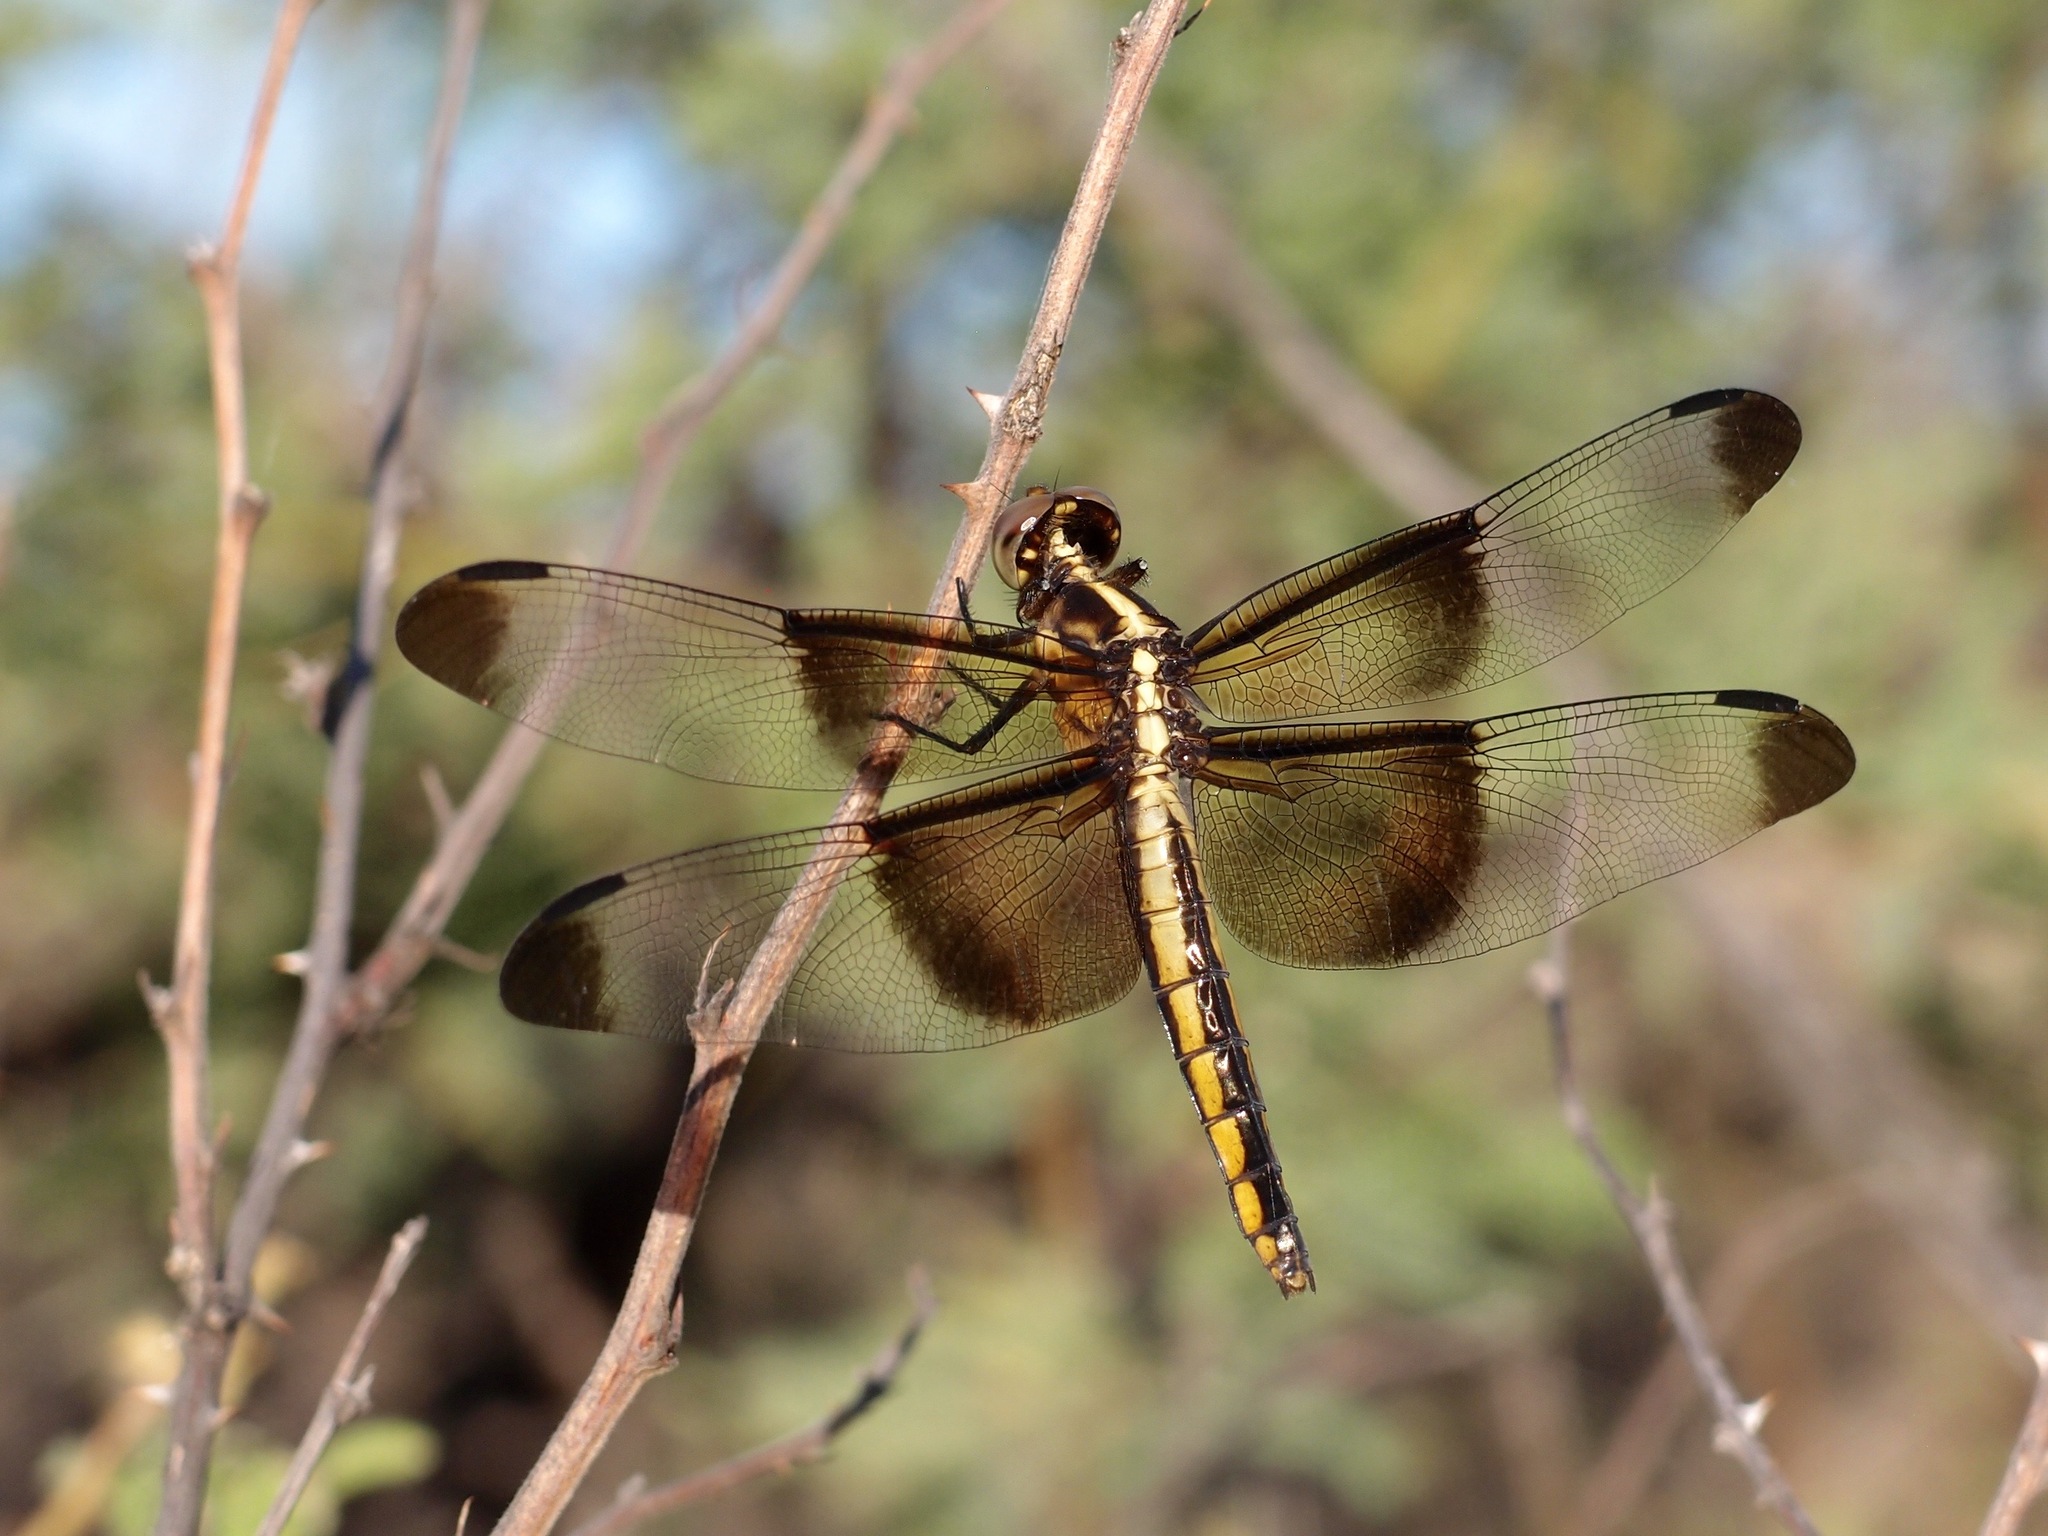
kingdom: Animalia
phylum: Arthropoda
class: Insecta
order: Odonata
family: Libellulidae
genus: Libellula
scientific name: Libellula luctuosa
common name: Widow skimmer
